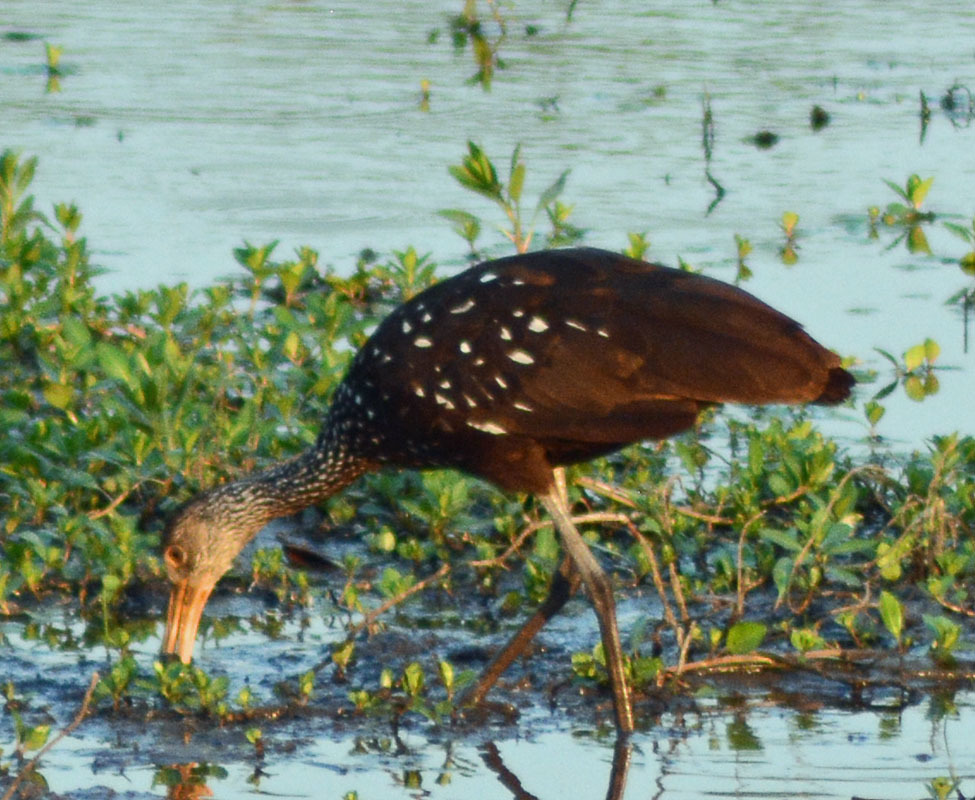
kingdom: Animalia
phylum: Chordata
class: Aves
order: Gruiformes
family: Aramidae
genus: Aramus
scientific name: Aramus guarauna
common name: Limpkin
